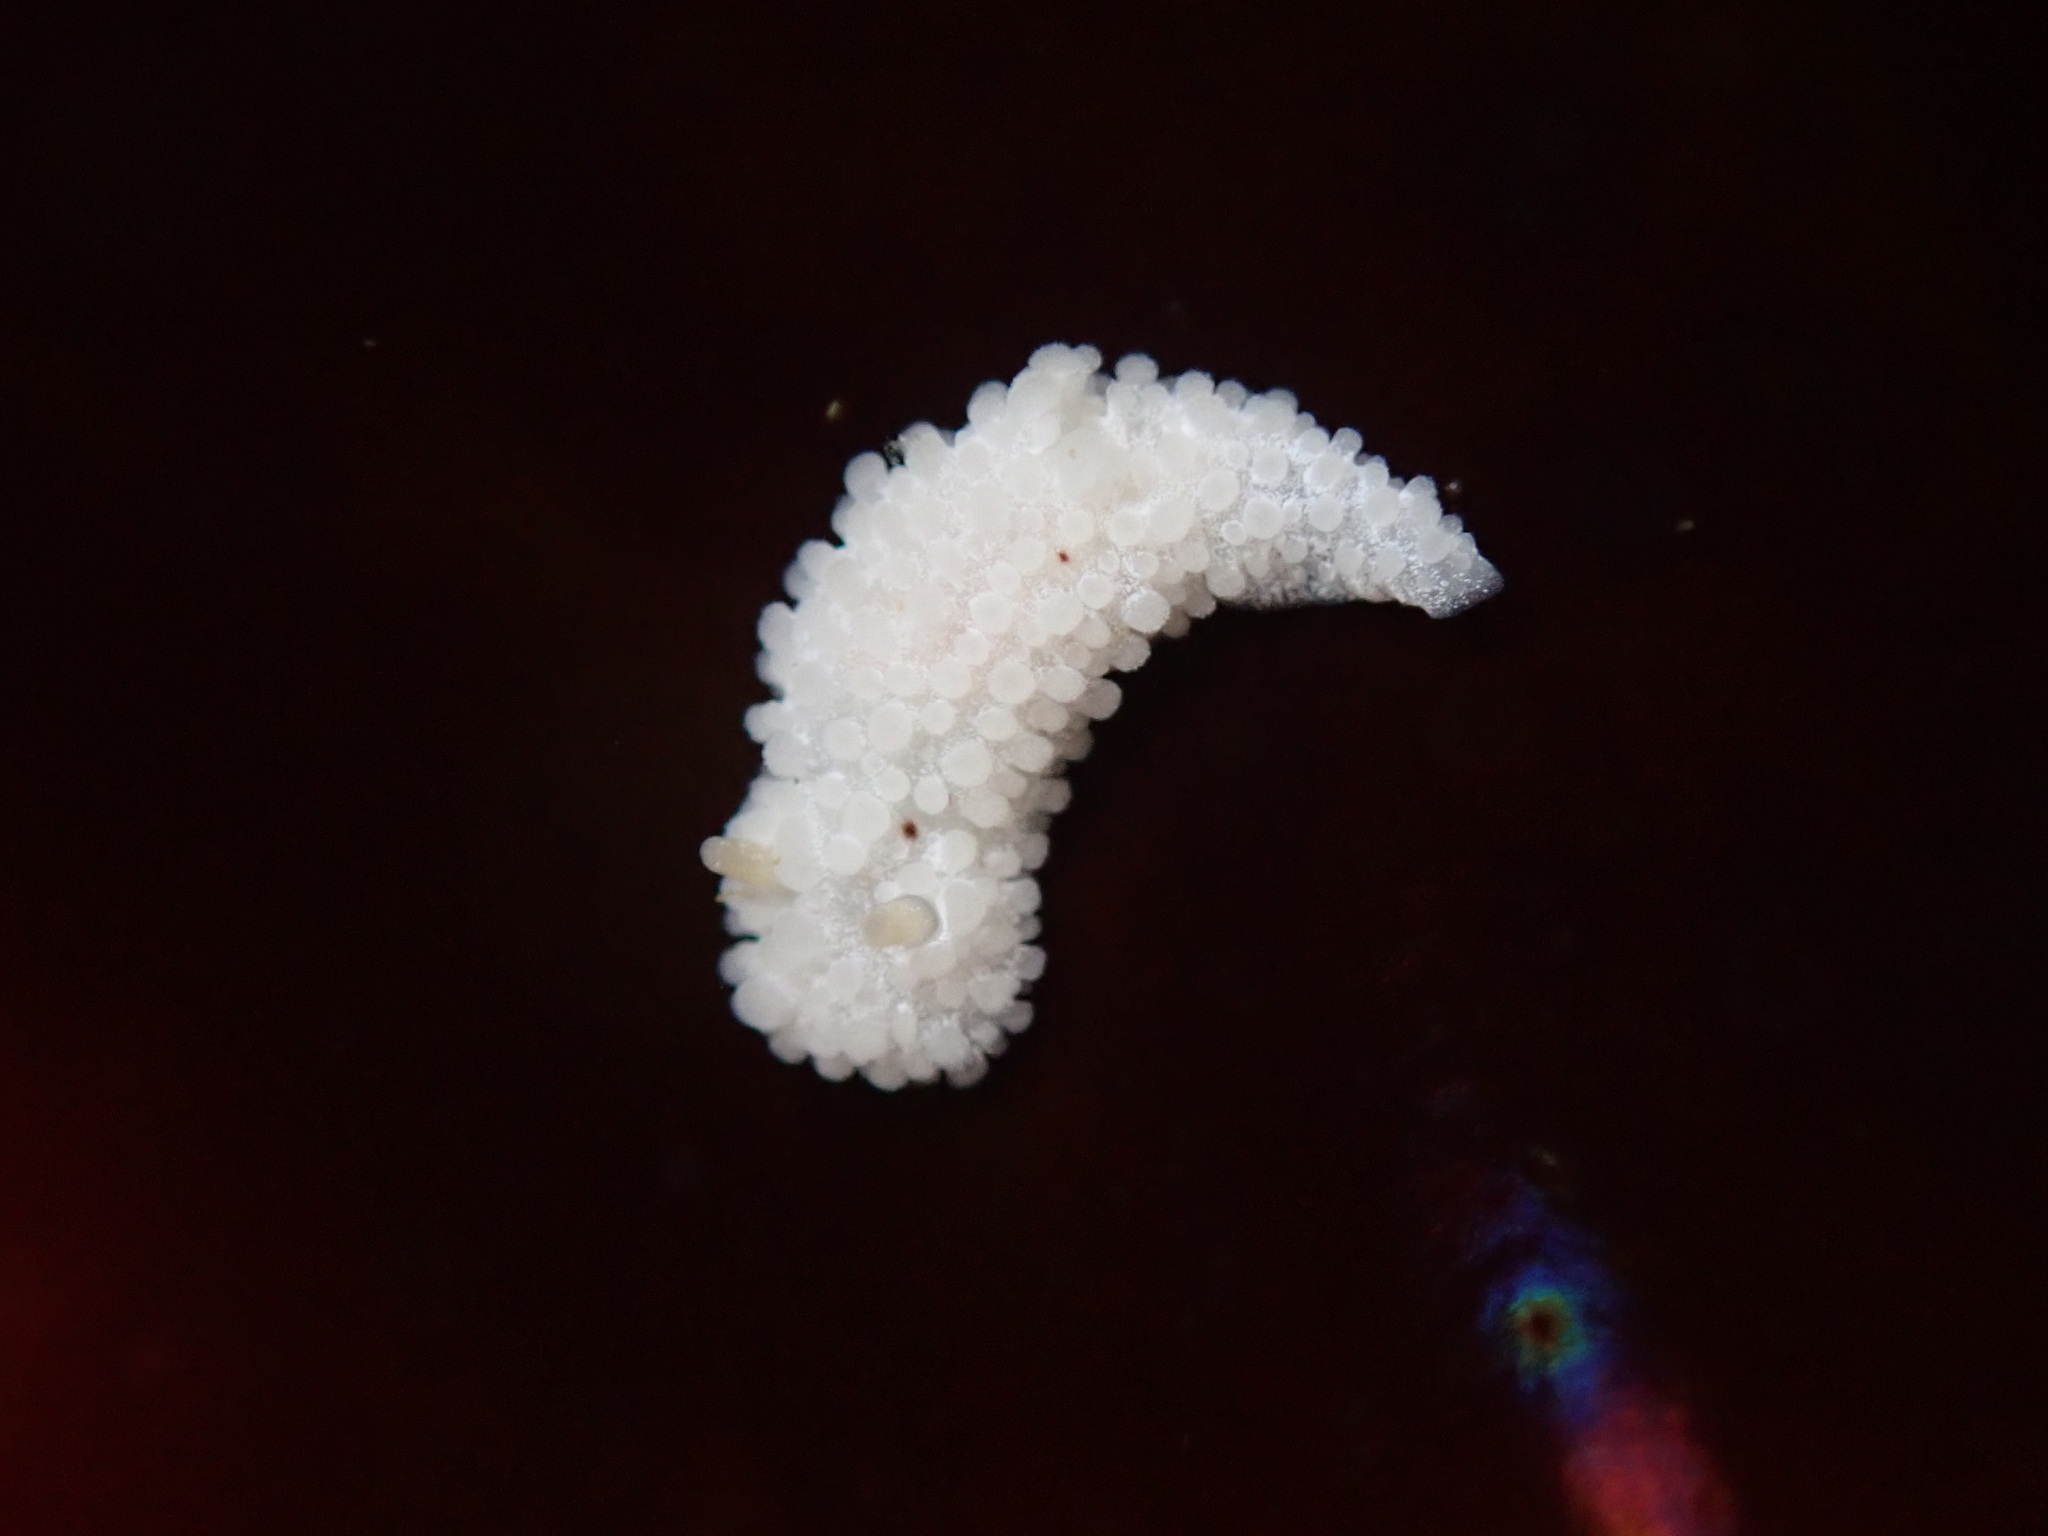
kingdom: Animalia
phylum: Mollusca
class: Gastropoda
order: Nudibranchia
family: Aegiridae
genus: Aegires
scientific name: Aegires albopunctatus
